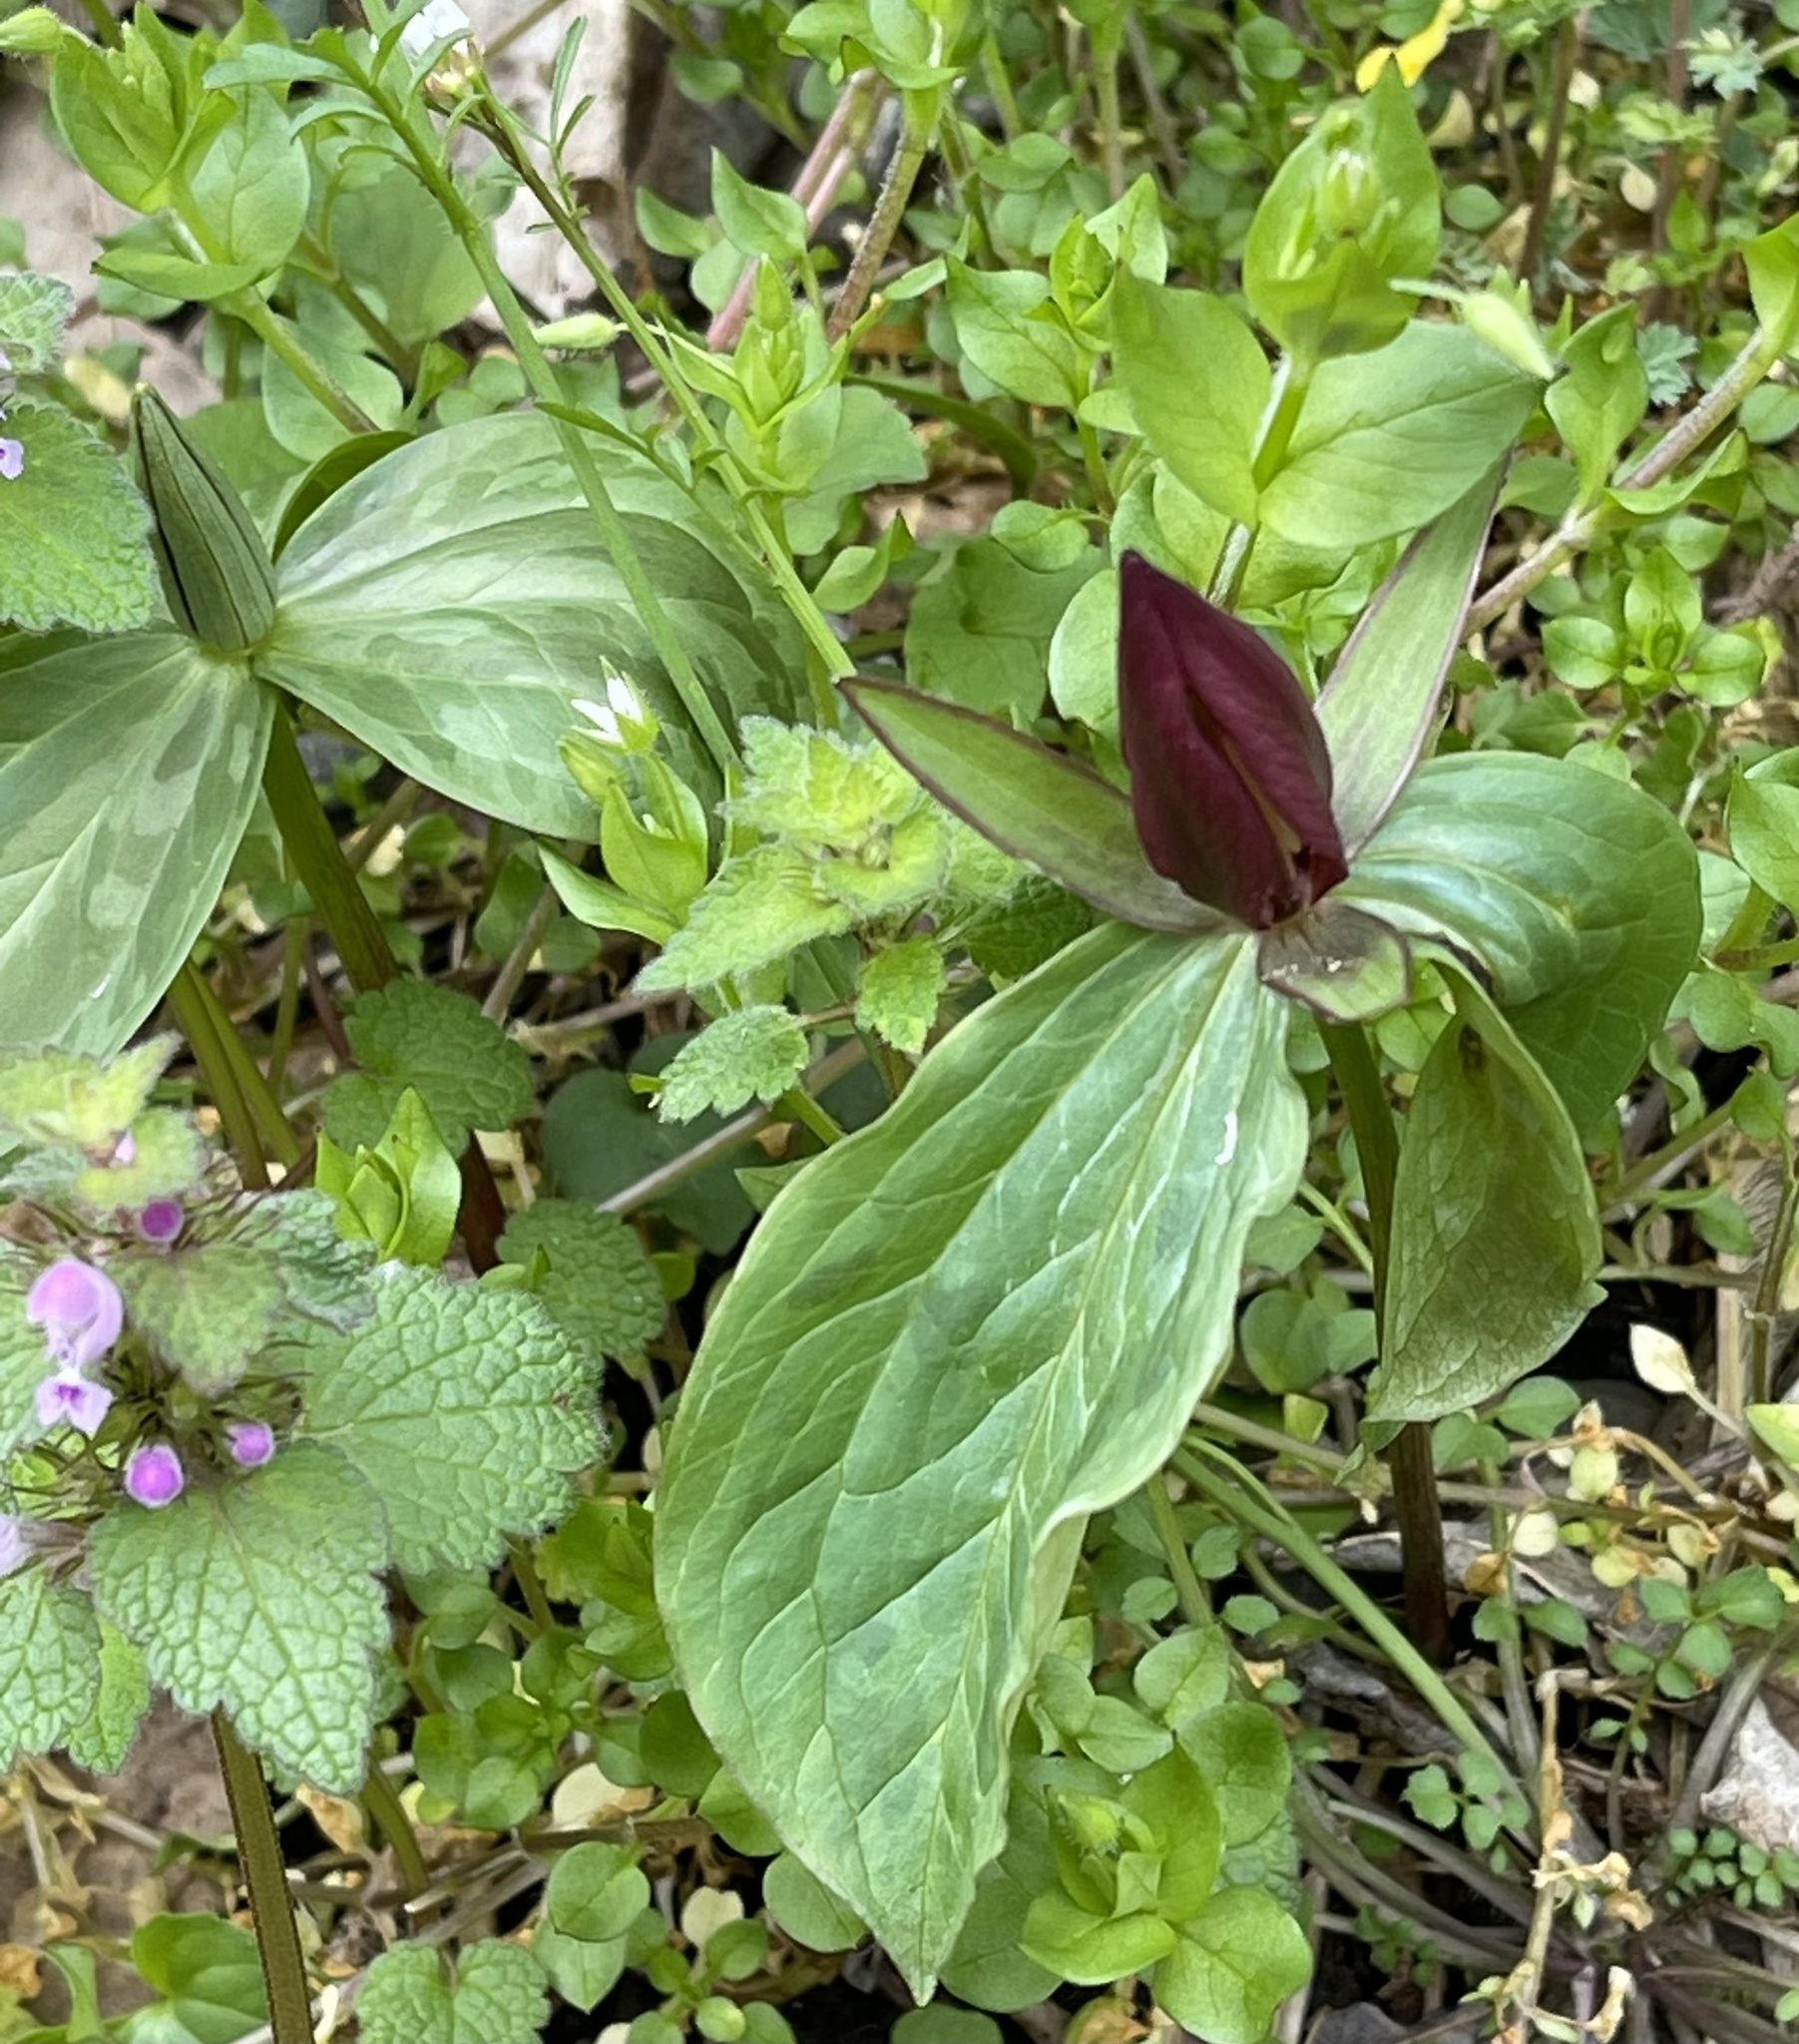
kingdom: Plantae
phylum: Tracheophyta
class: Liliopsida
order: Liliales
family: Melanthiaceae
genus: Trillium
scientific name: Trillium sessile
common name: Sessile trillium
